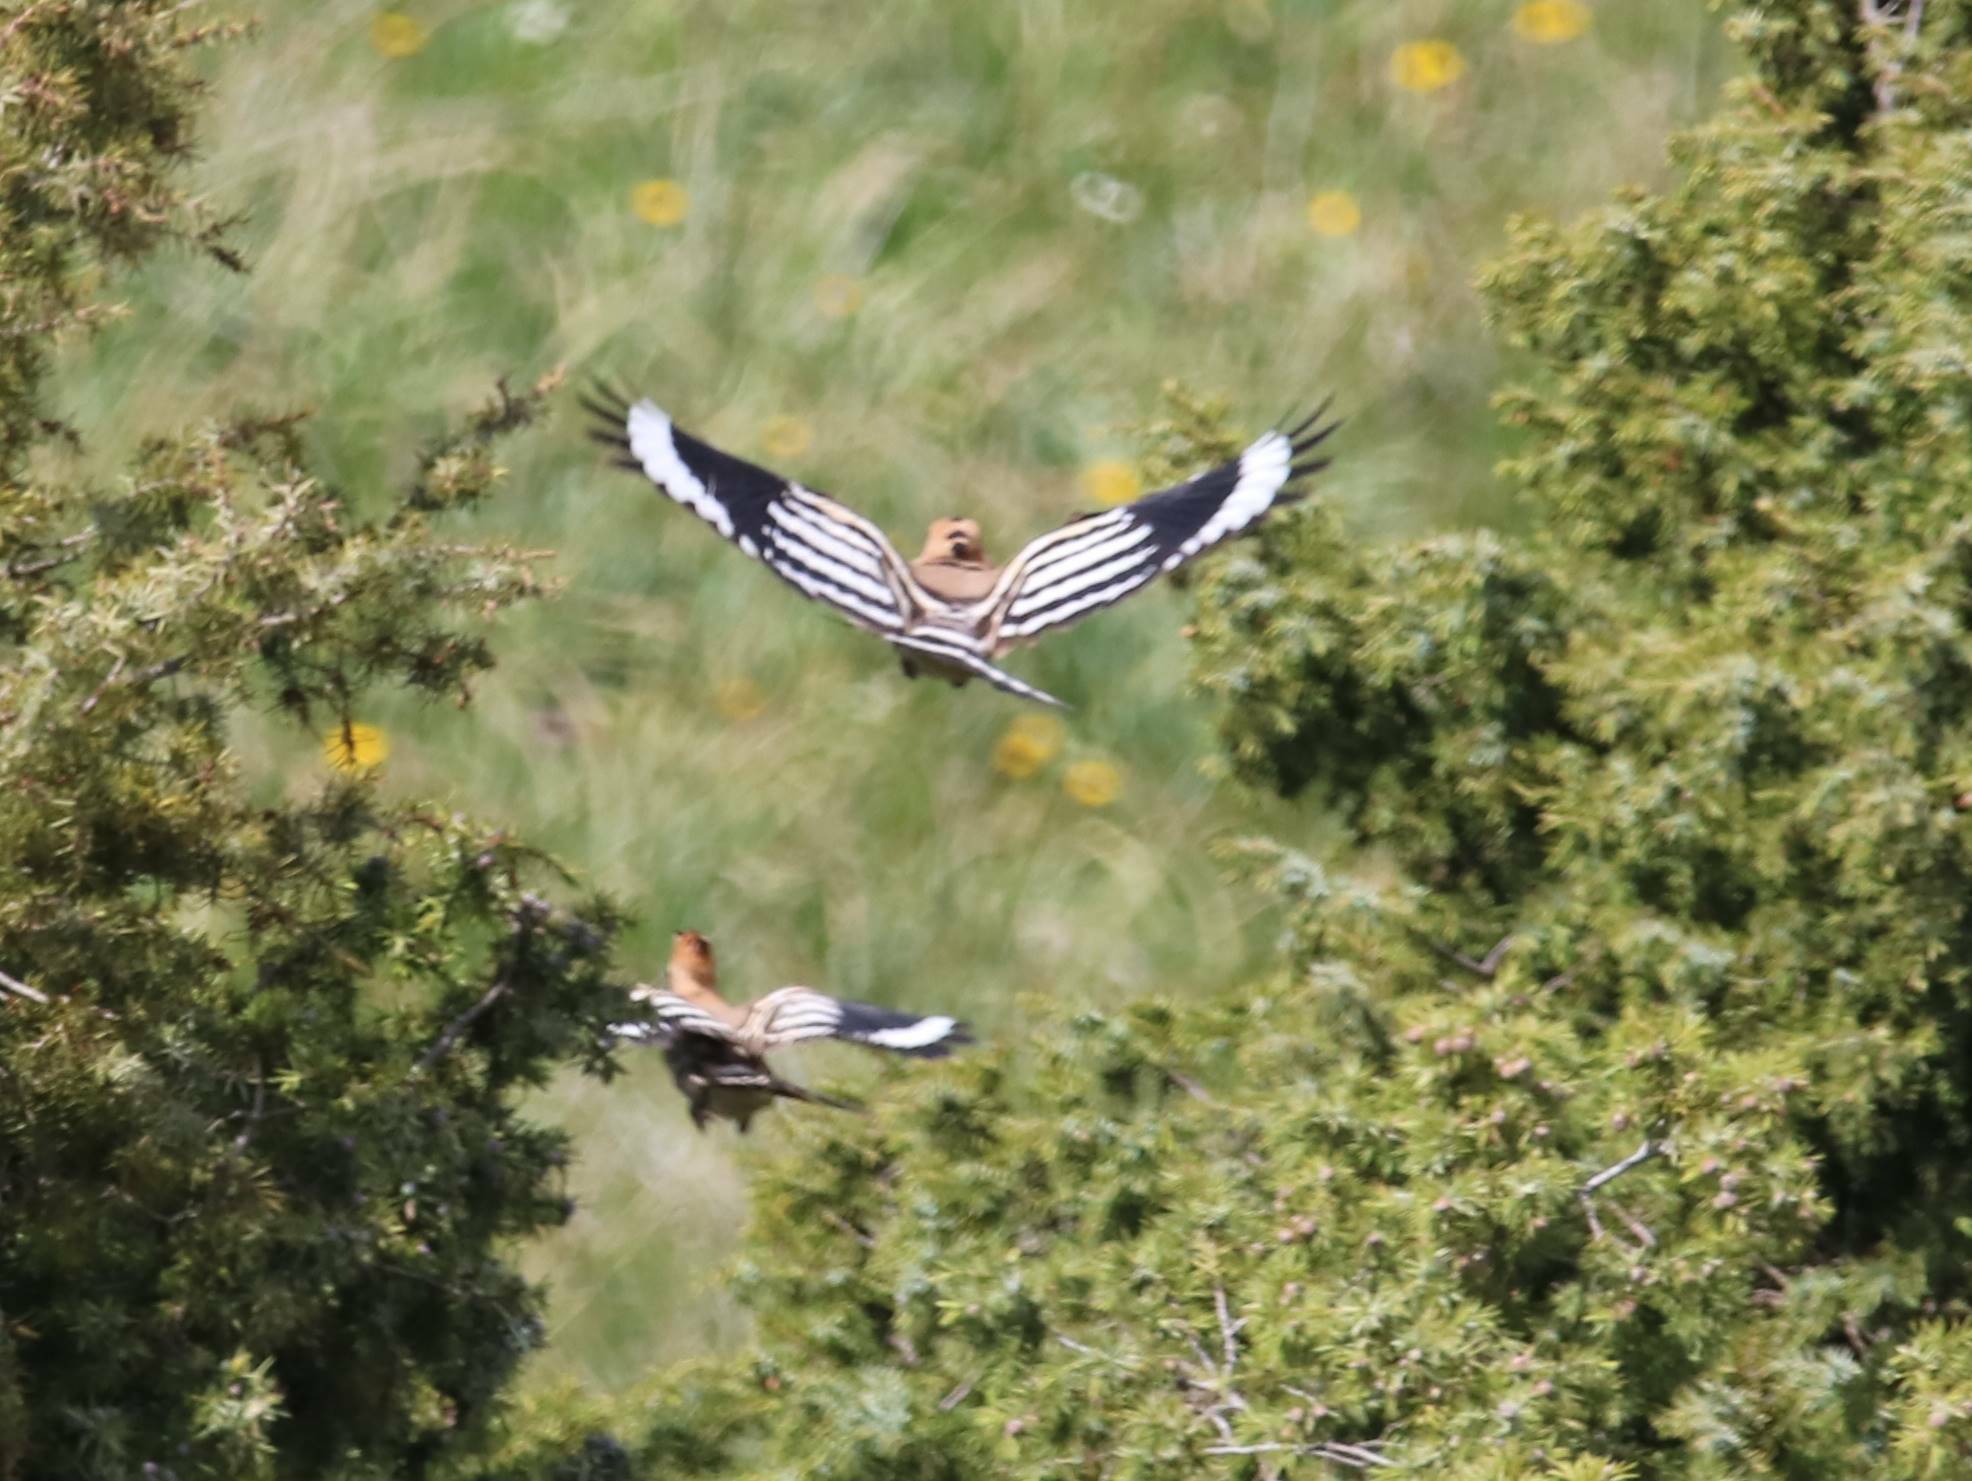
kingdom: Animalia
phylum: Chordata
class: Aves
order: Bucerotiformes
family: Upupidae
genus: Upupa
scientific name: Upupa epops
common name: Eurasian hoopoe
